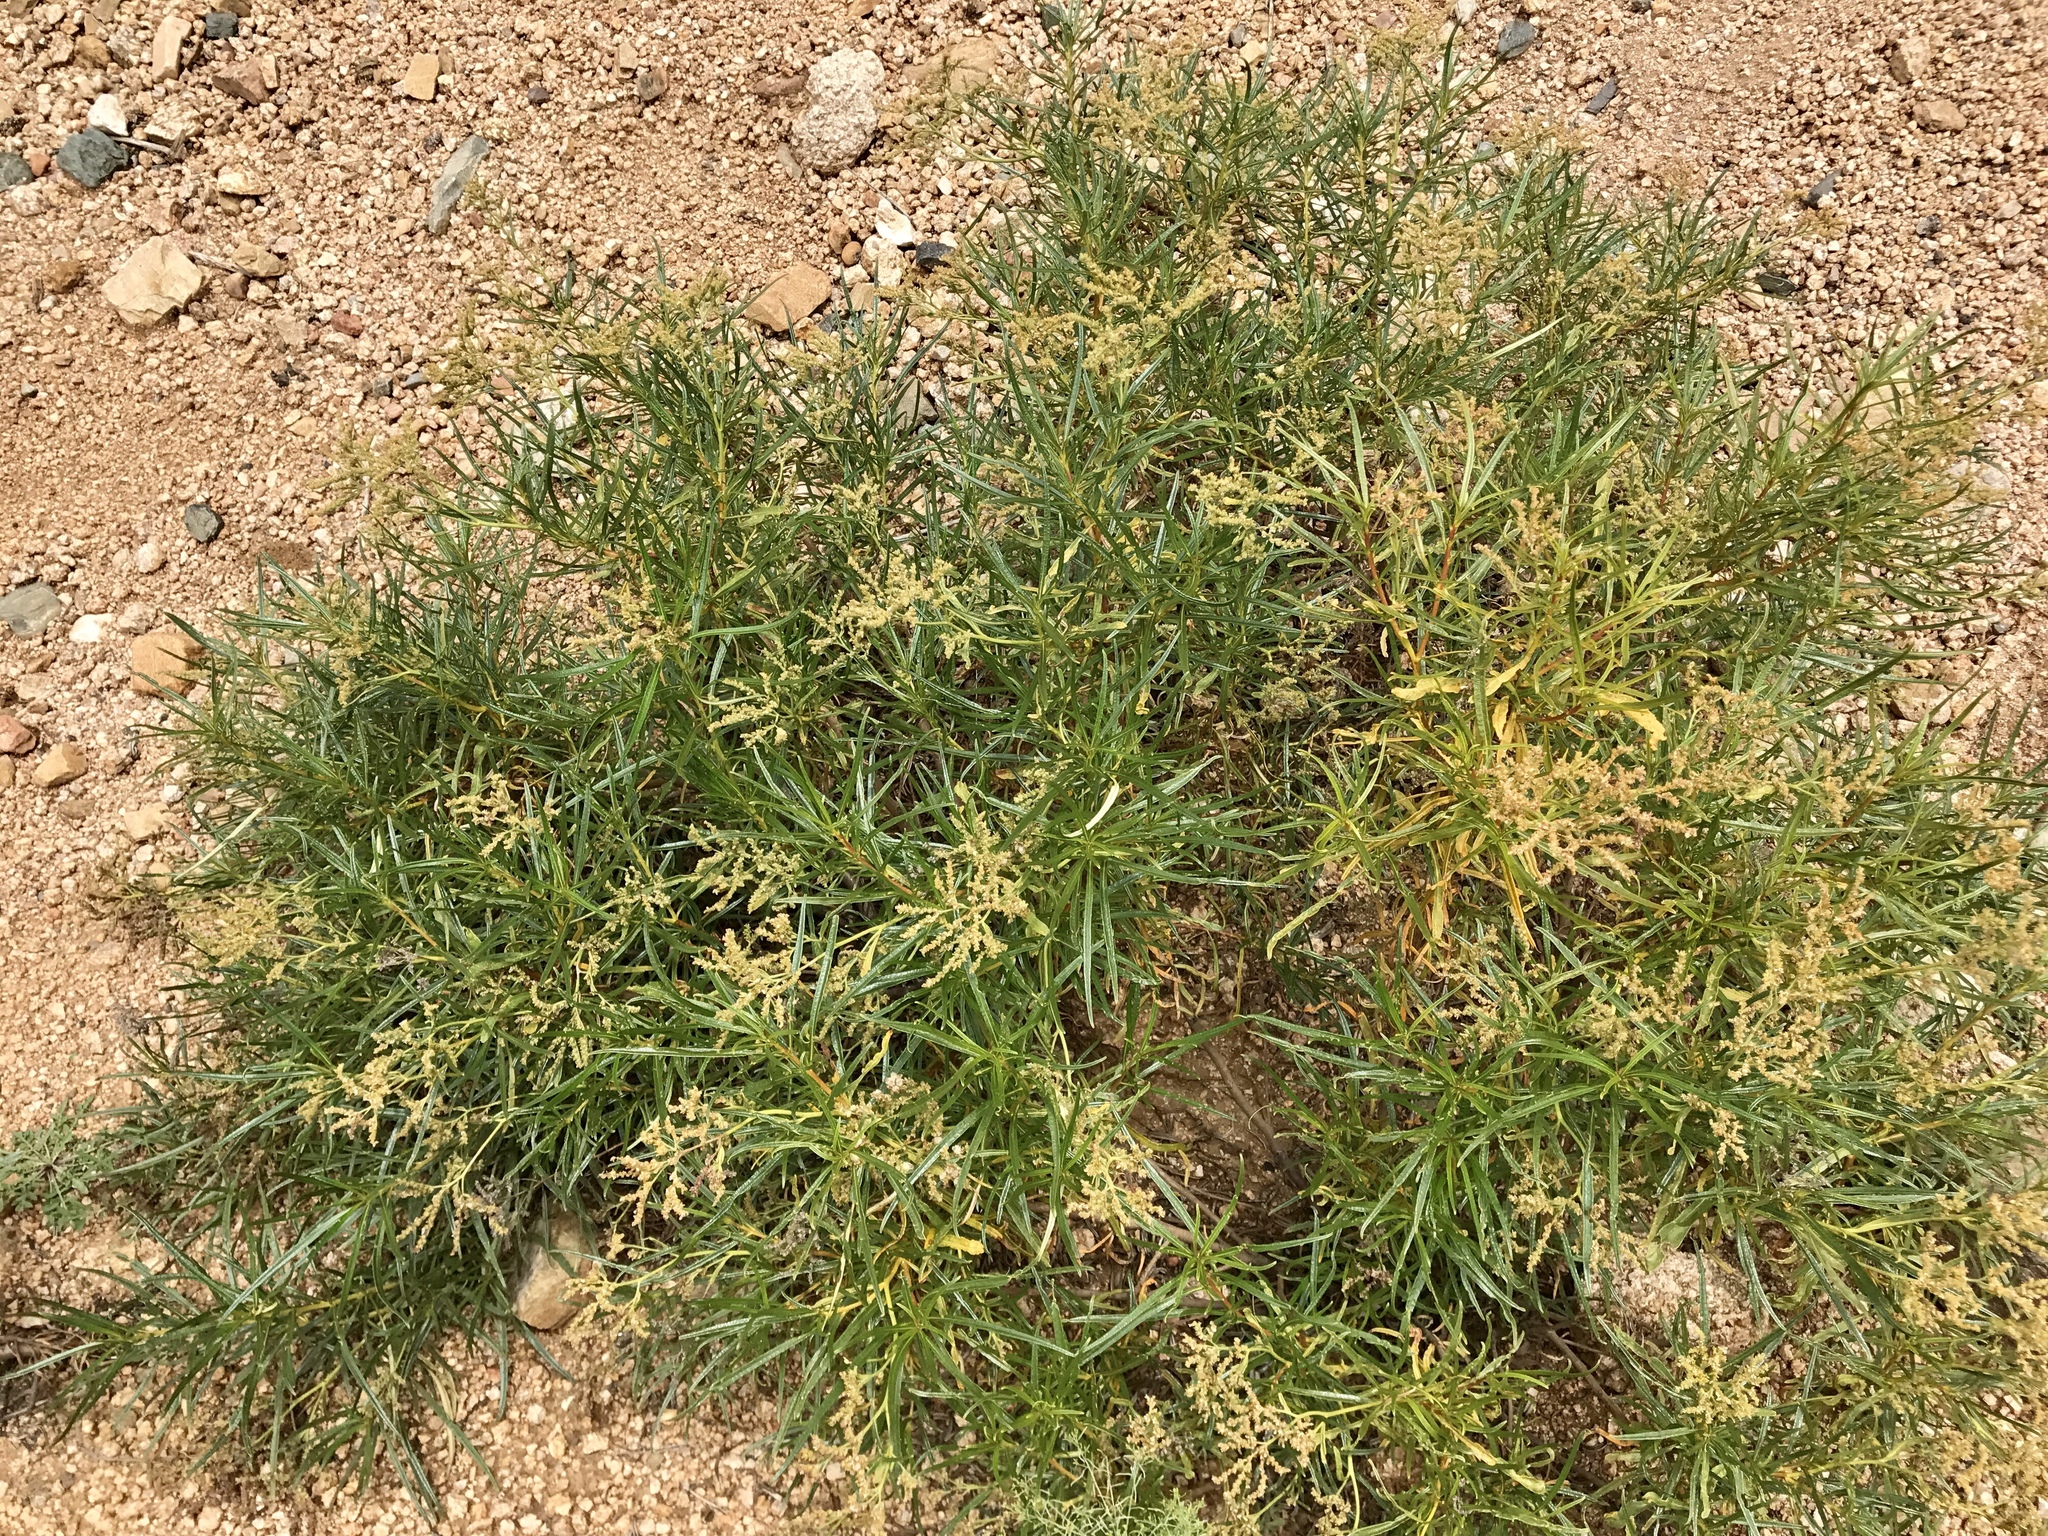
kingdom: Plantae
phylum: Tracheophyta
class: Magnoliopsida
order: Boraginales
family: Namaceae
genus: Eriodictyon
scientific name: Eriodictyon angustifolium
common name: Narrow-leaf yerba santa
